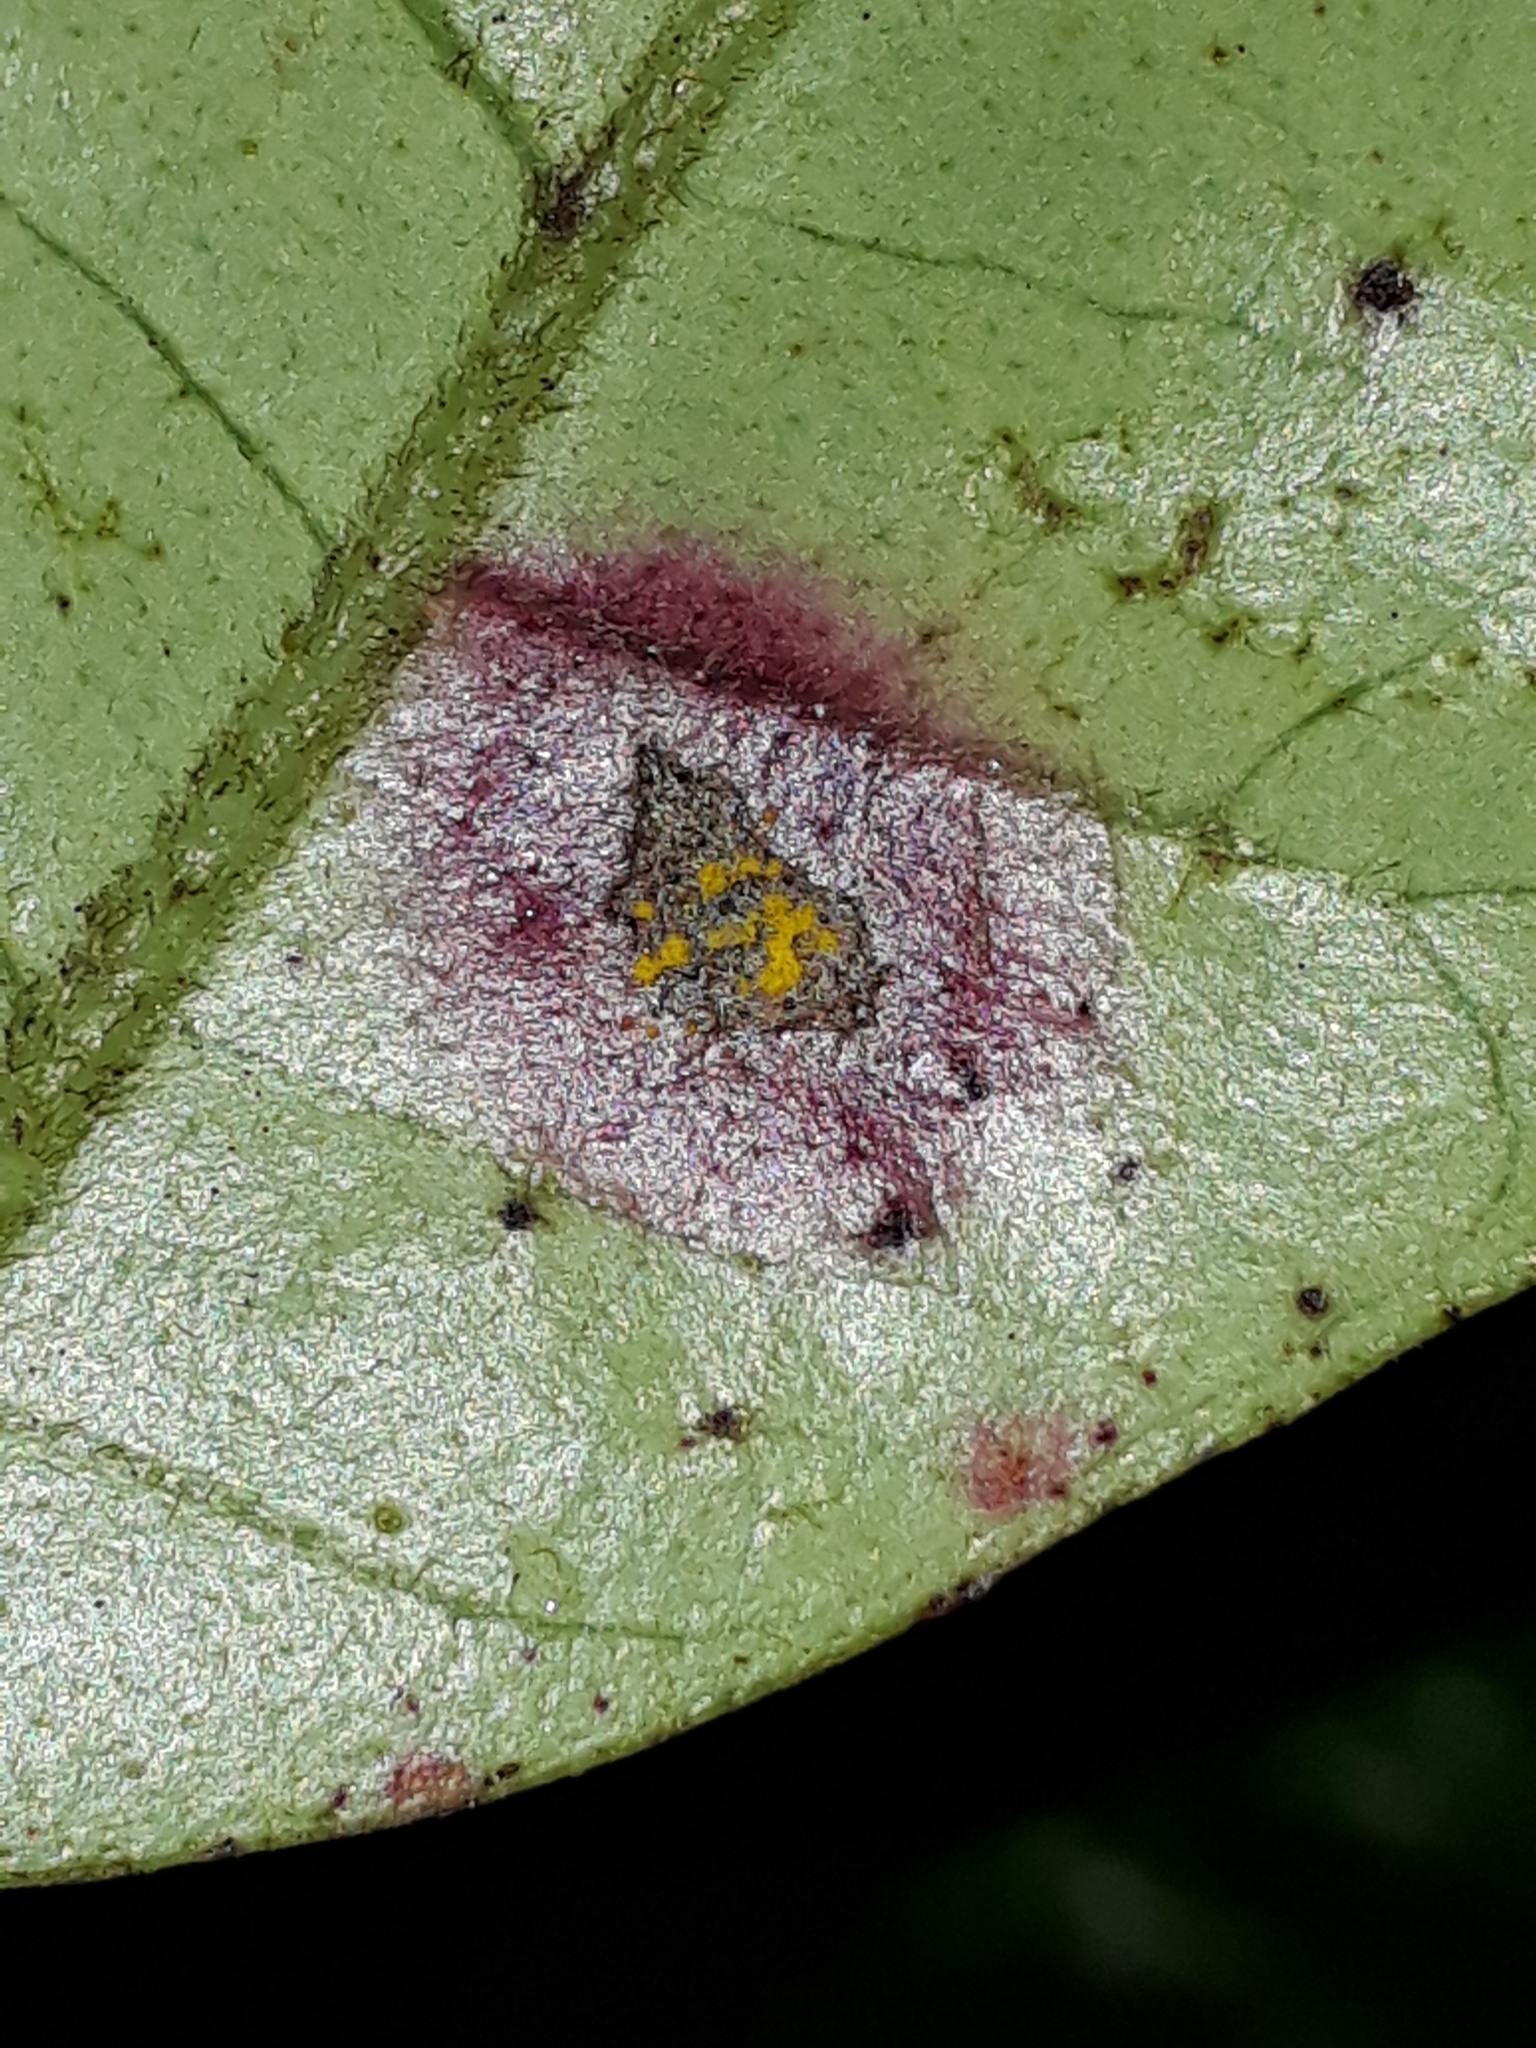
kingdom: Fungi
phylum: Basidiomycota
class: Pucciniomycetes
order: Pucciniales
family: Sphaerophragmiaceae
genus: Austropuccinia
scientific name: Austropuccinia psidii
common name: Myrtle rust
